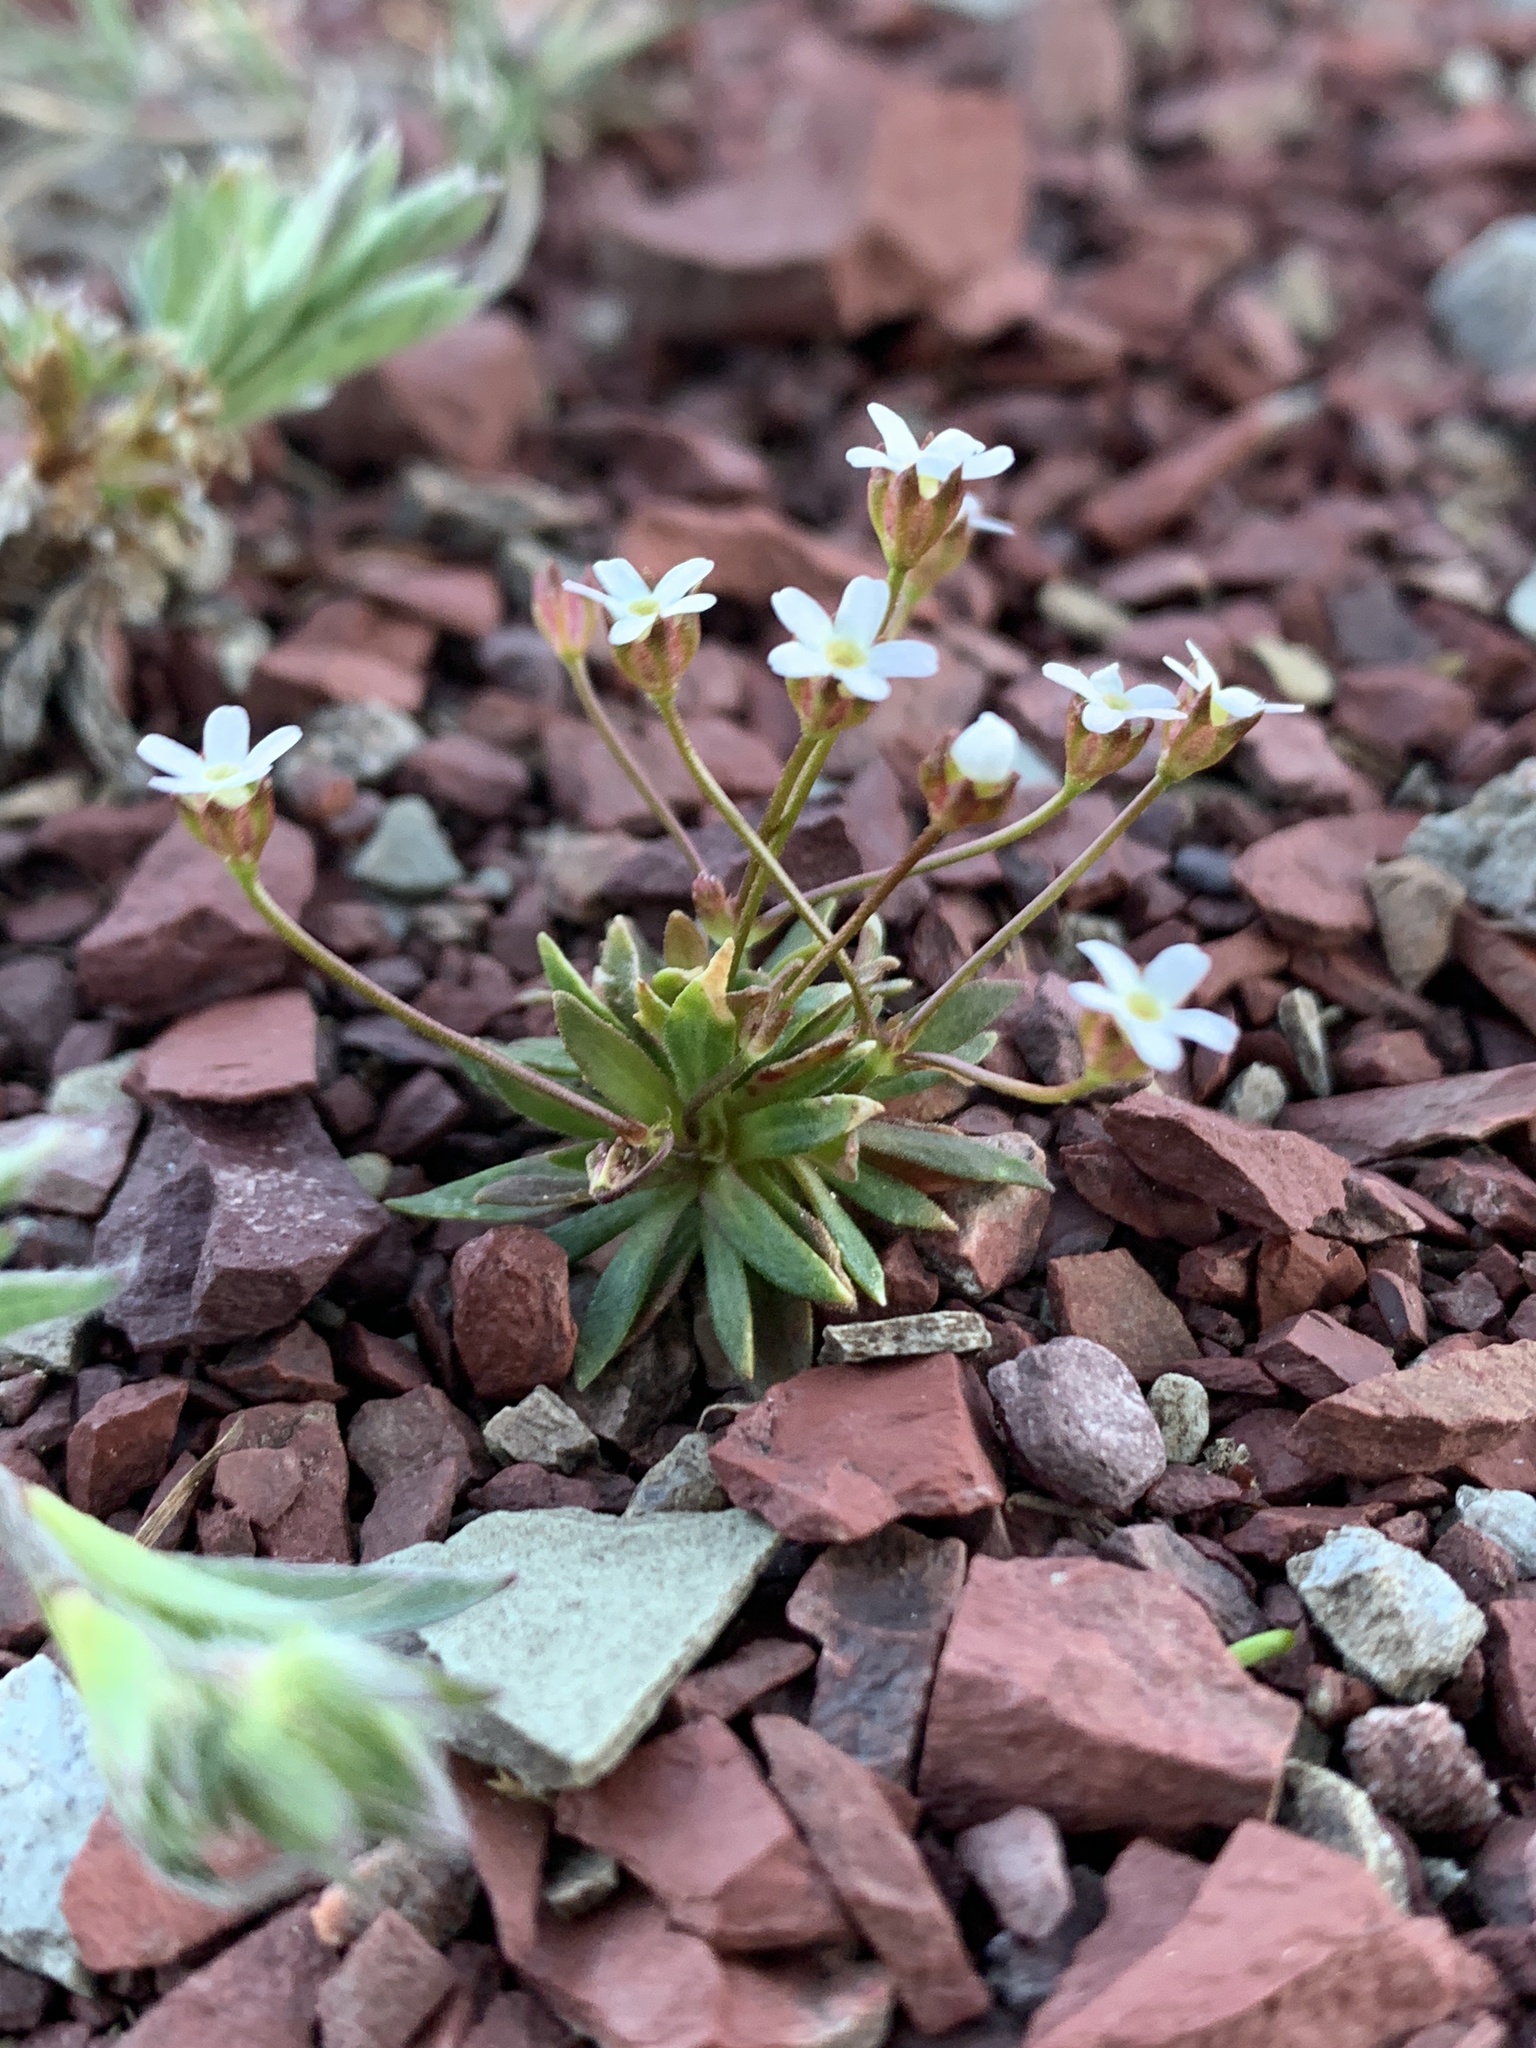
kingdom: Plantae
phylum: Tracheophyta
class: Magnoliopsida
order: Ericales
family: Primulaceae
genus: Androsace
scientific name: Androsace septentrionalis
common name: Hairy northern fairy-candelabra
